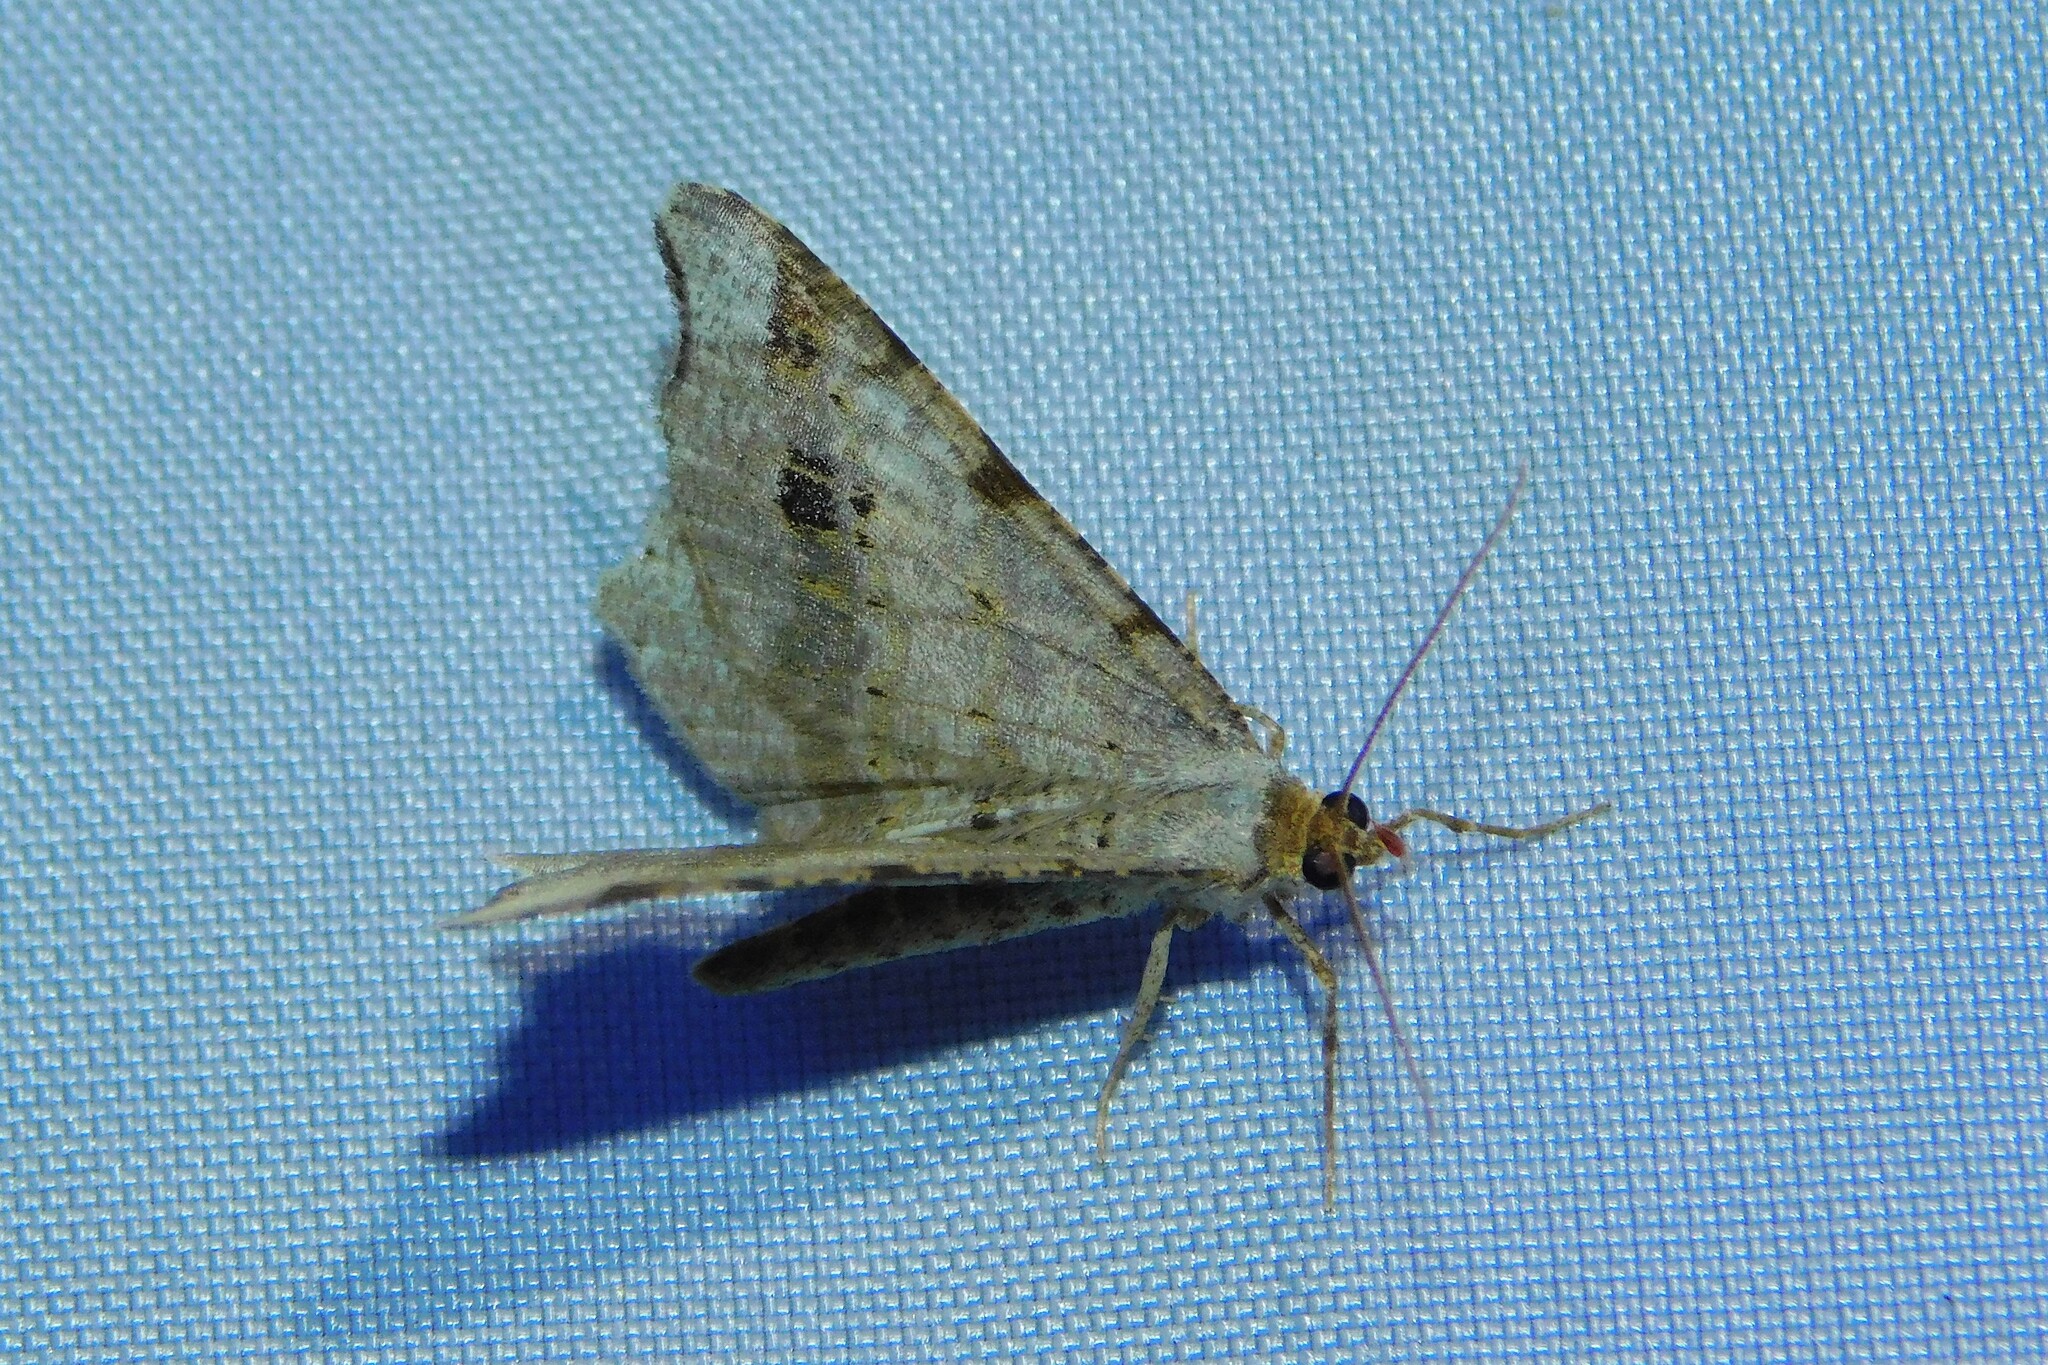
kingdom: Animalia
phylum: Arthropoda
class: Insecta
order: Lepidoptera
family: Geometridae
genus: Macaria
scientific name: Macaria alternata
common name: Sharp-angled peacock
